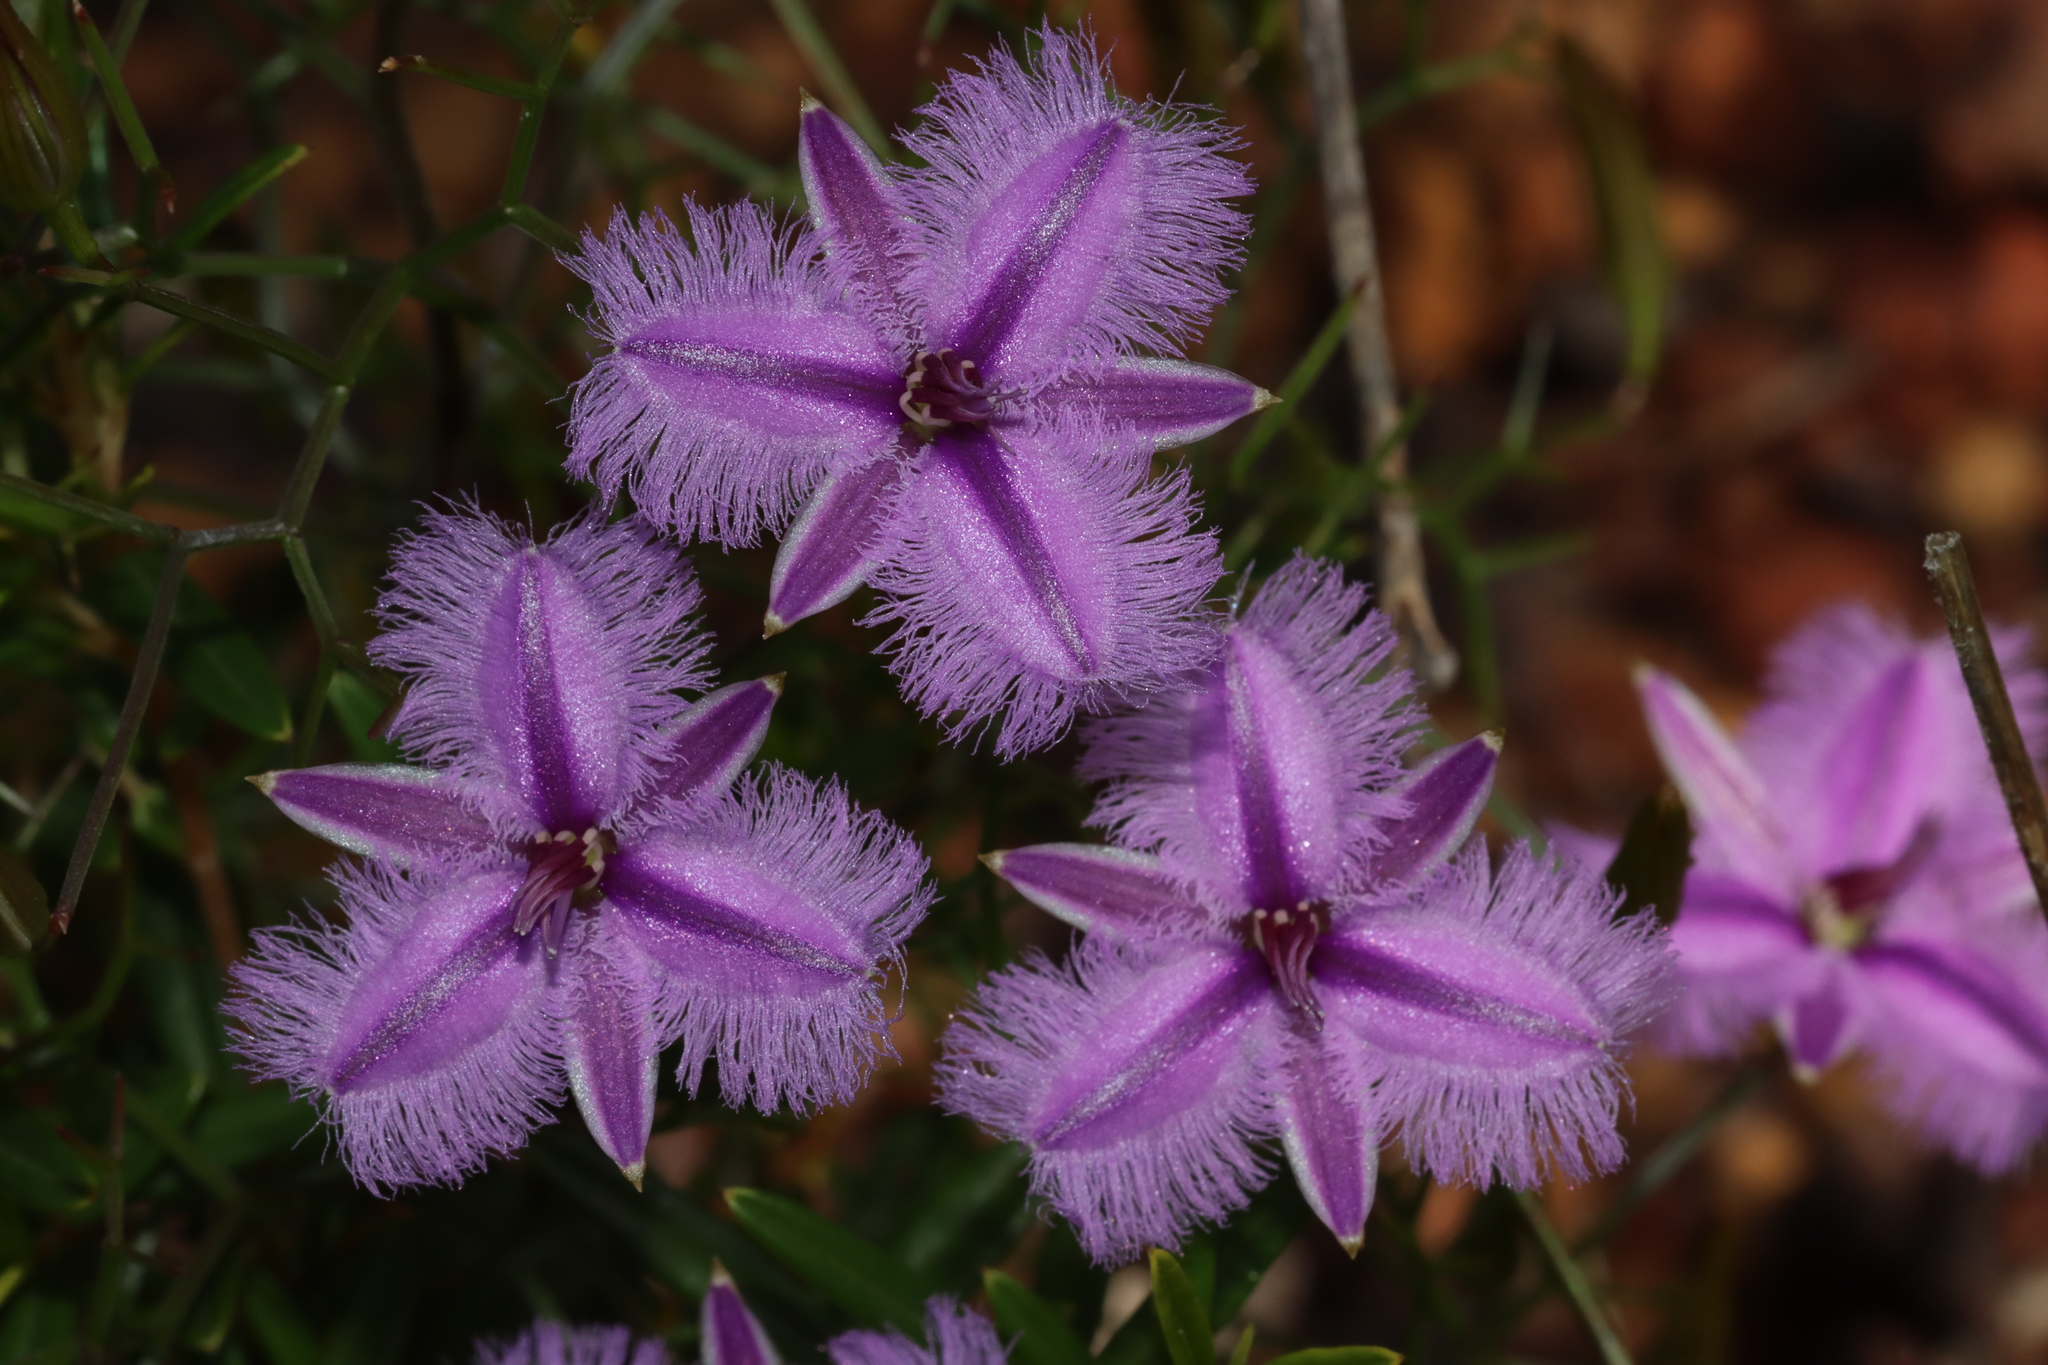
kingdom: Plantae
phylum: Tracheophyta
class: Liliopsida
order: Asparagales
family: Asparagaceae
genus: Thysanotus
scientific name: Thysanotus fastigiatus
